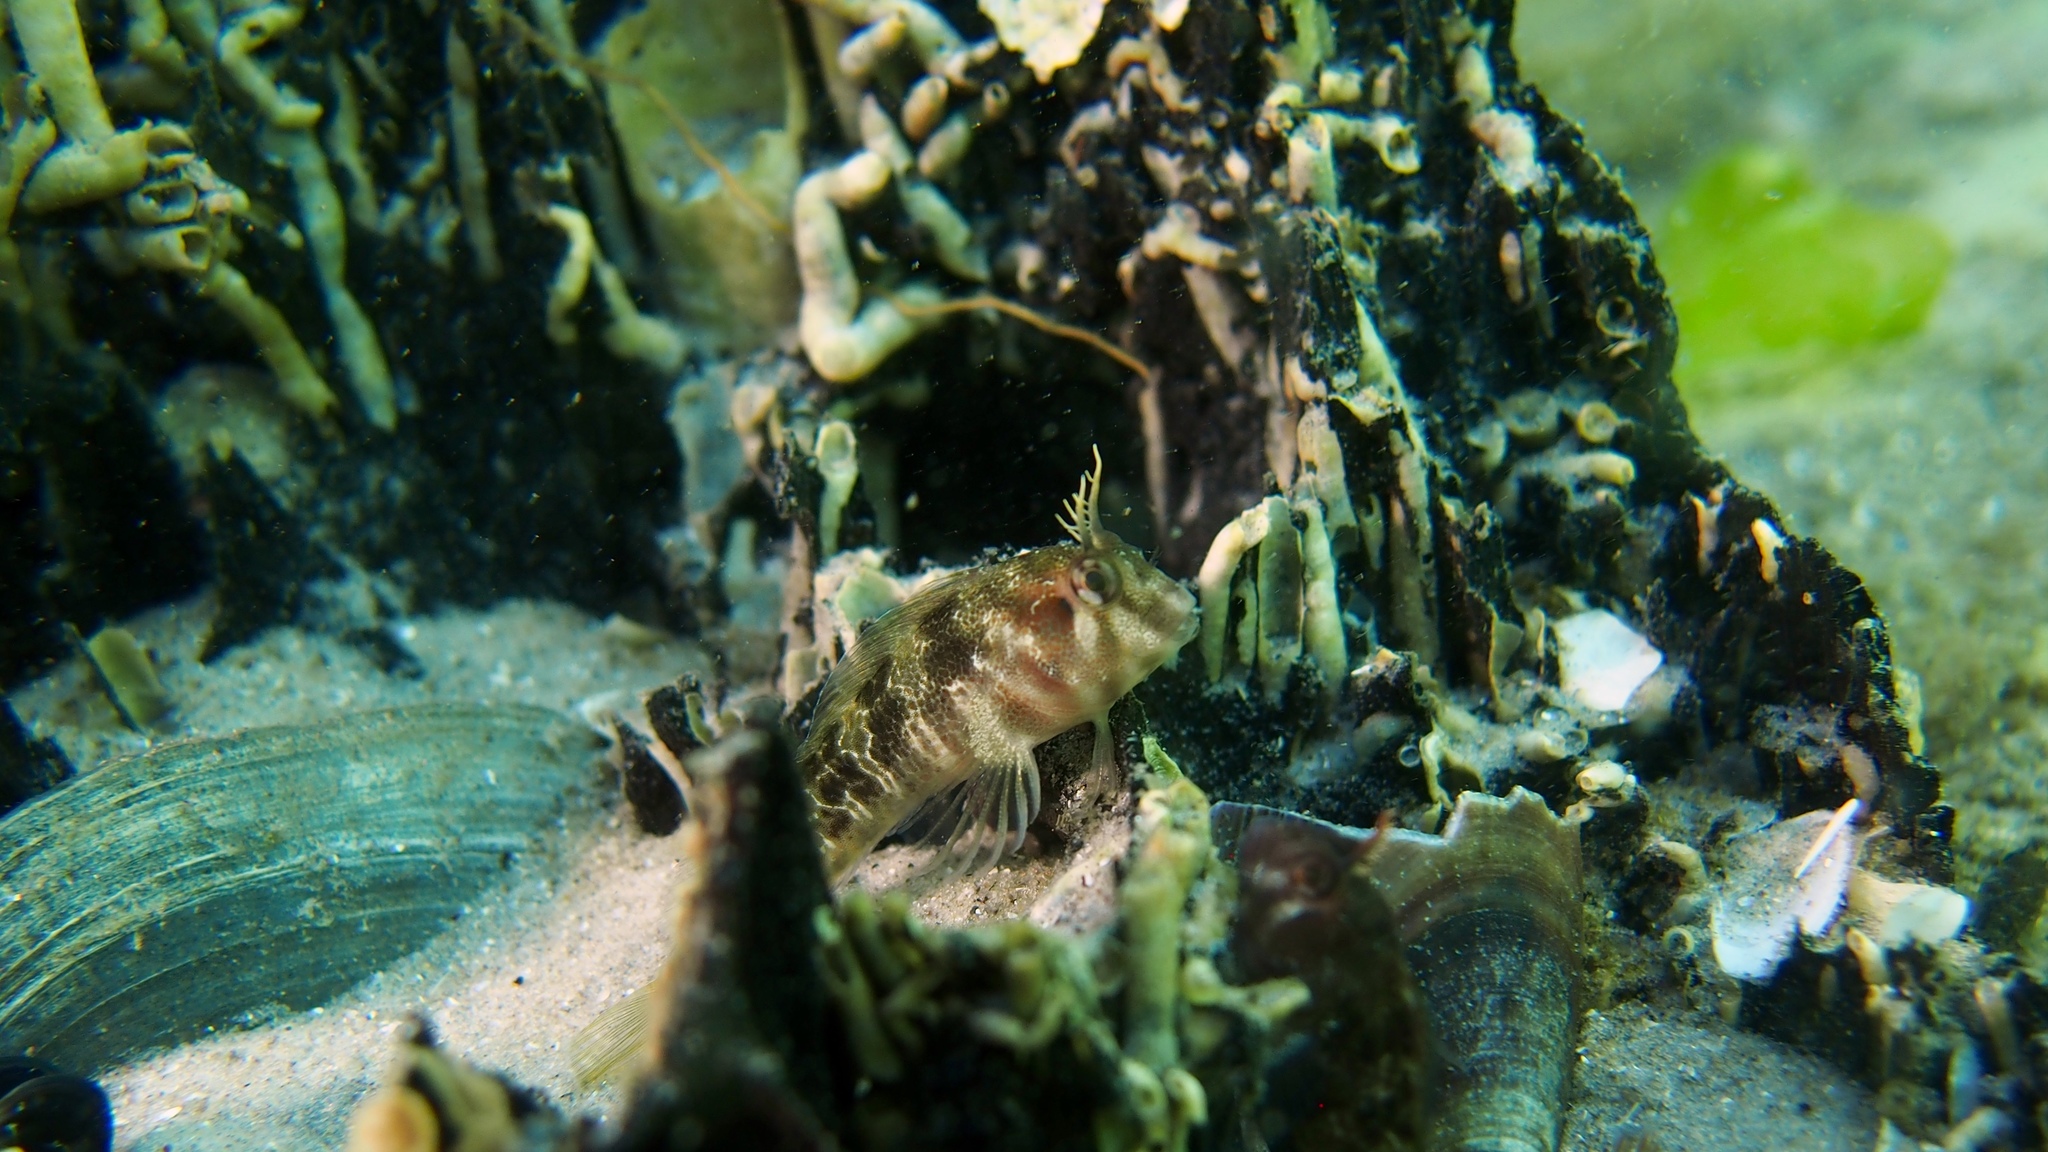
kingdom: Animalia
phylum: Chordata
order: Perciformes
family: Blenniidae
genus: Parablennius
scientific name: Parablennius tasmanianus
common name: Tasmanian blenny
